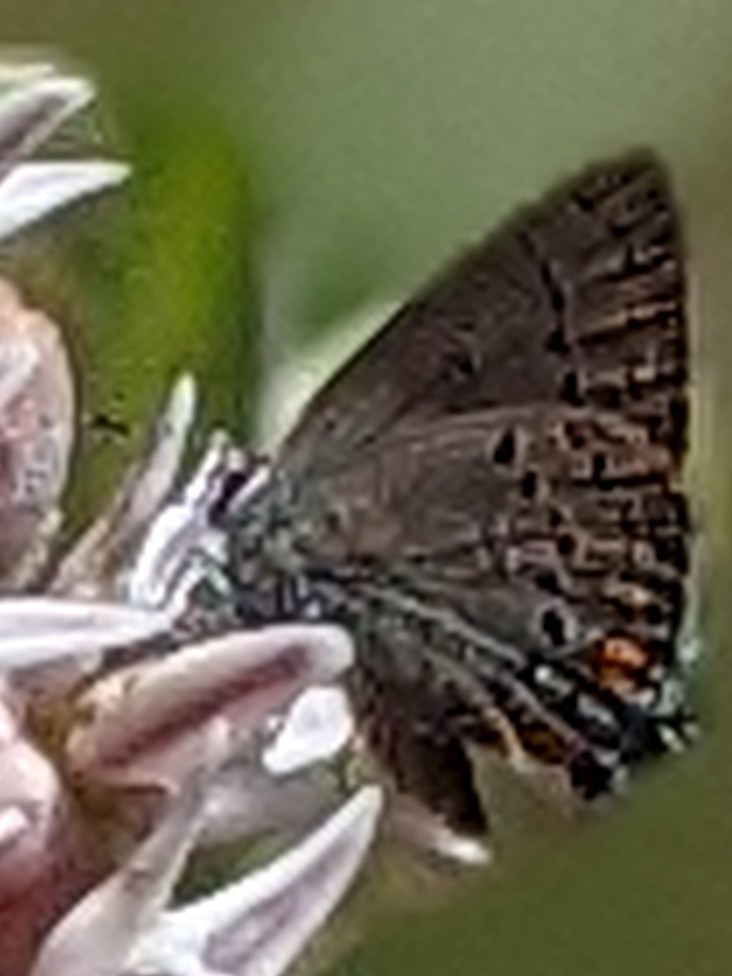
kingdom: Animalia
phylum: Arthropoda
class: Insecta
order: Lepidoptera
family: Lycaenidae
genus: Strymon
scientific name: Strymon acadica
